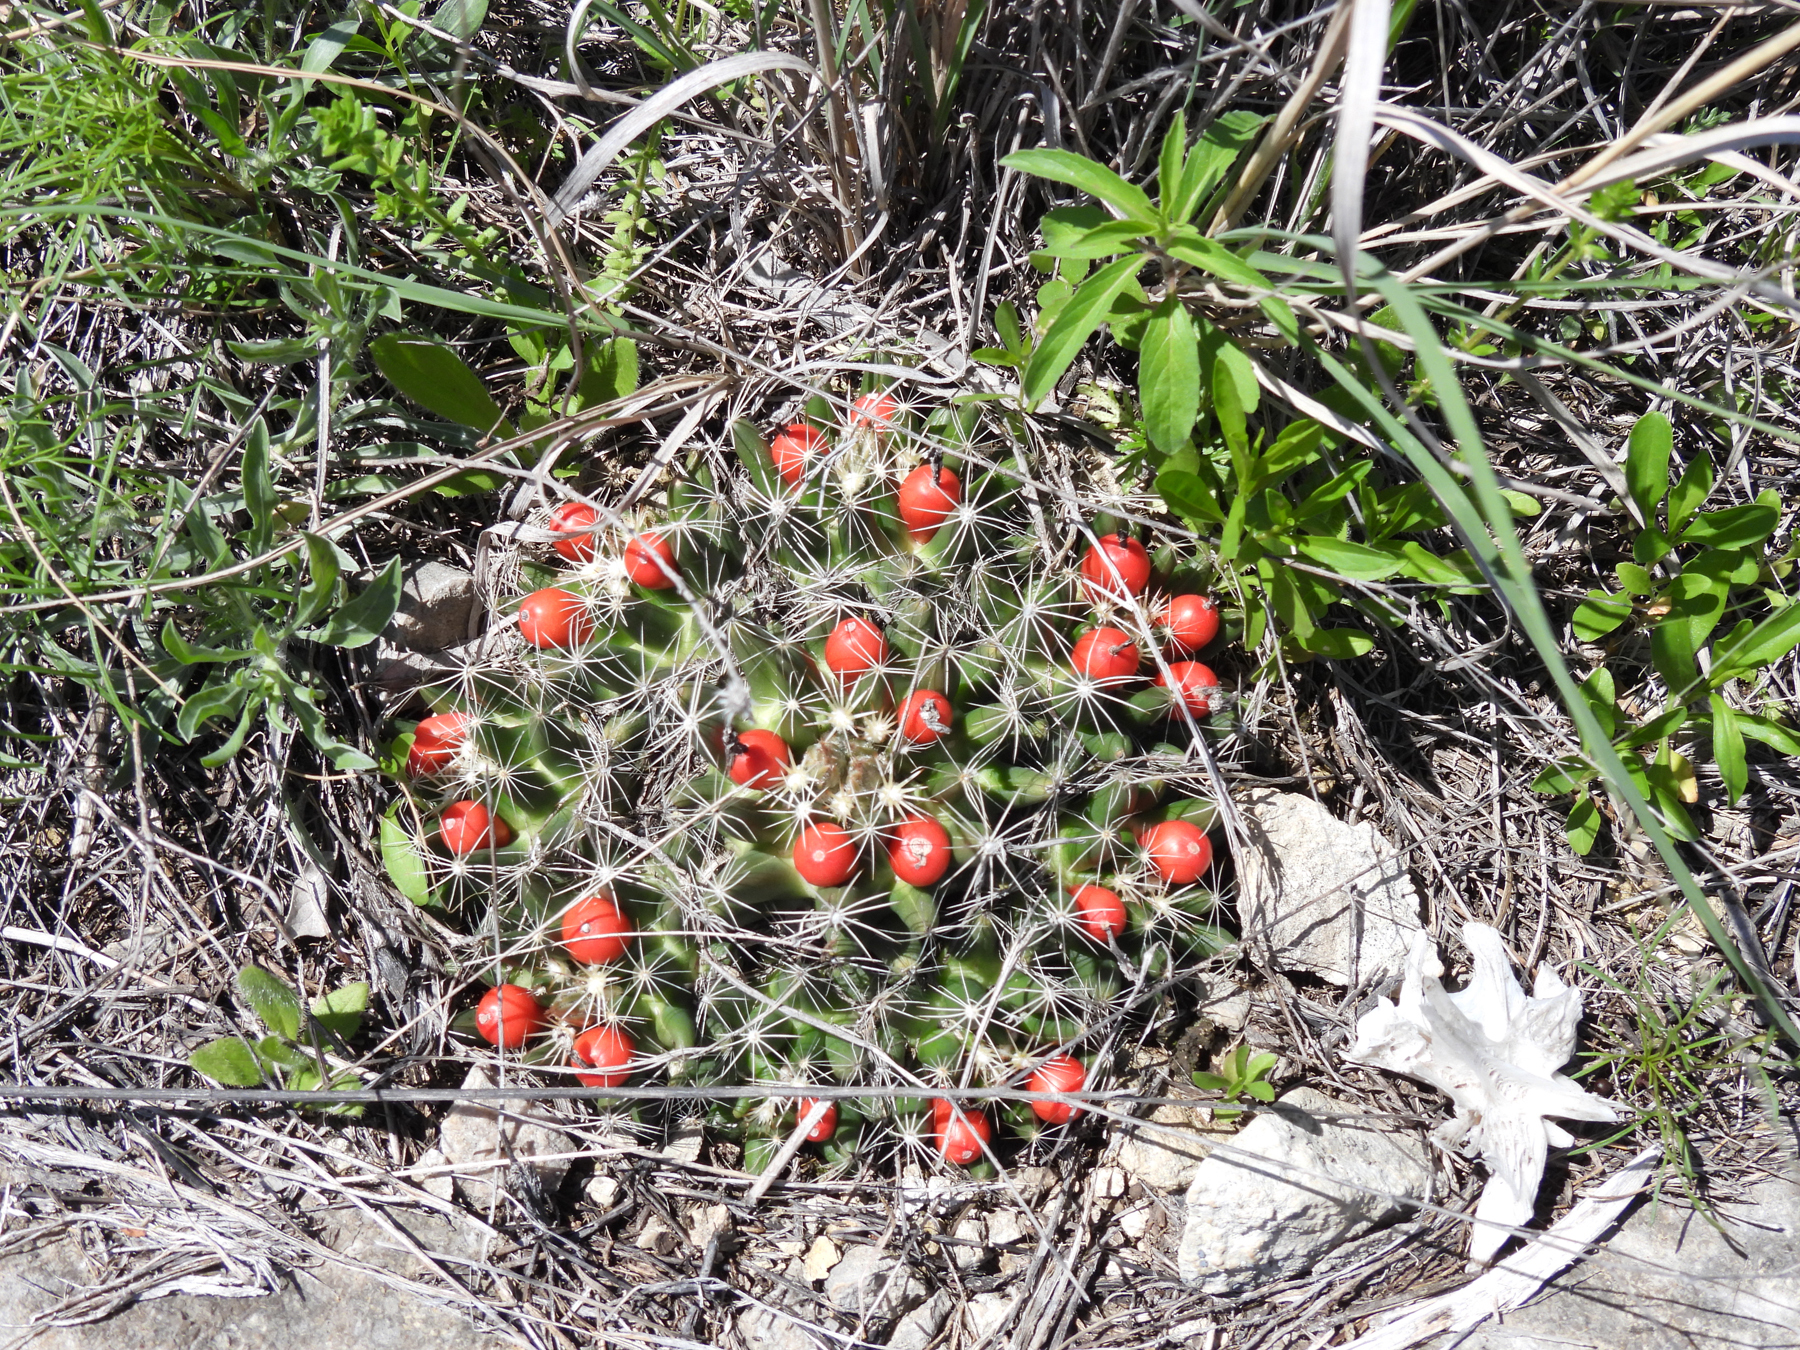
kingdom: Plantae
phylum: Tracheophyta
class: Magnoliopsida
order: Caryophyllales
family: Cactaceae
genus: Pelecyphora
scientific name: Pelecyphora missouriensis
